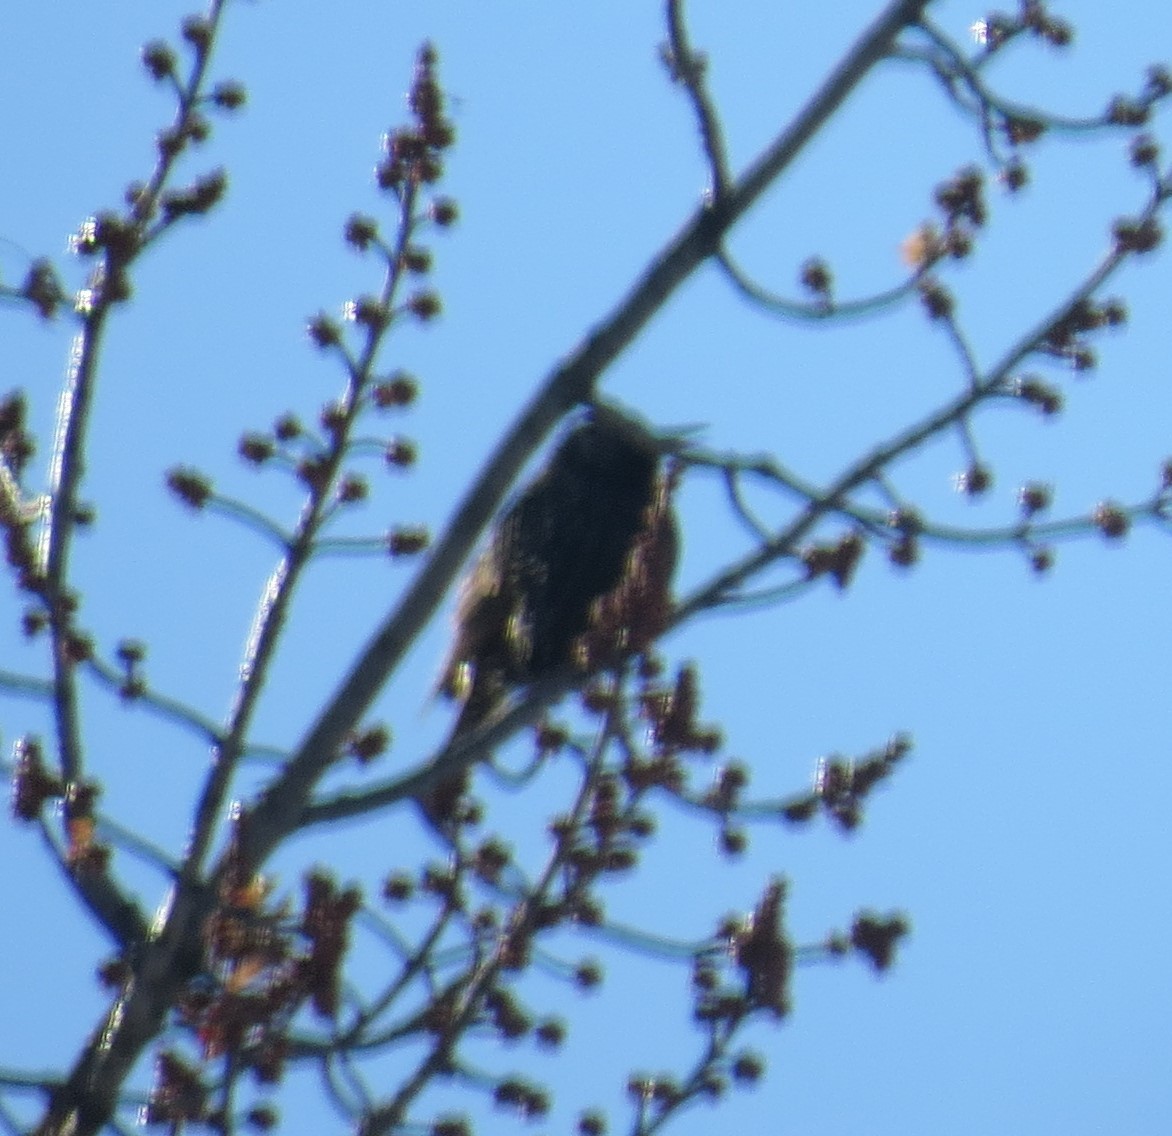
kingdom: Animalia
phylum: Chordata
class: Aves
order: Passeriformes
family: Sturnidae
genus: Sturnus
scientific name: Sturnus vulgaris
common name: Common starling
